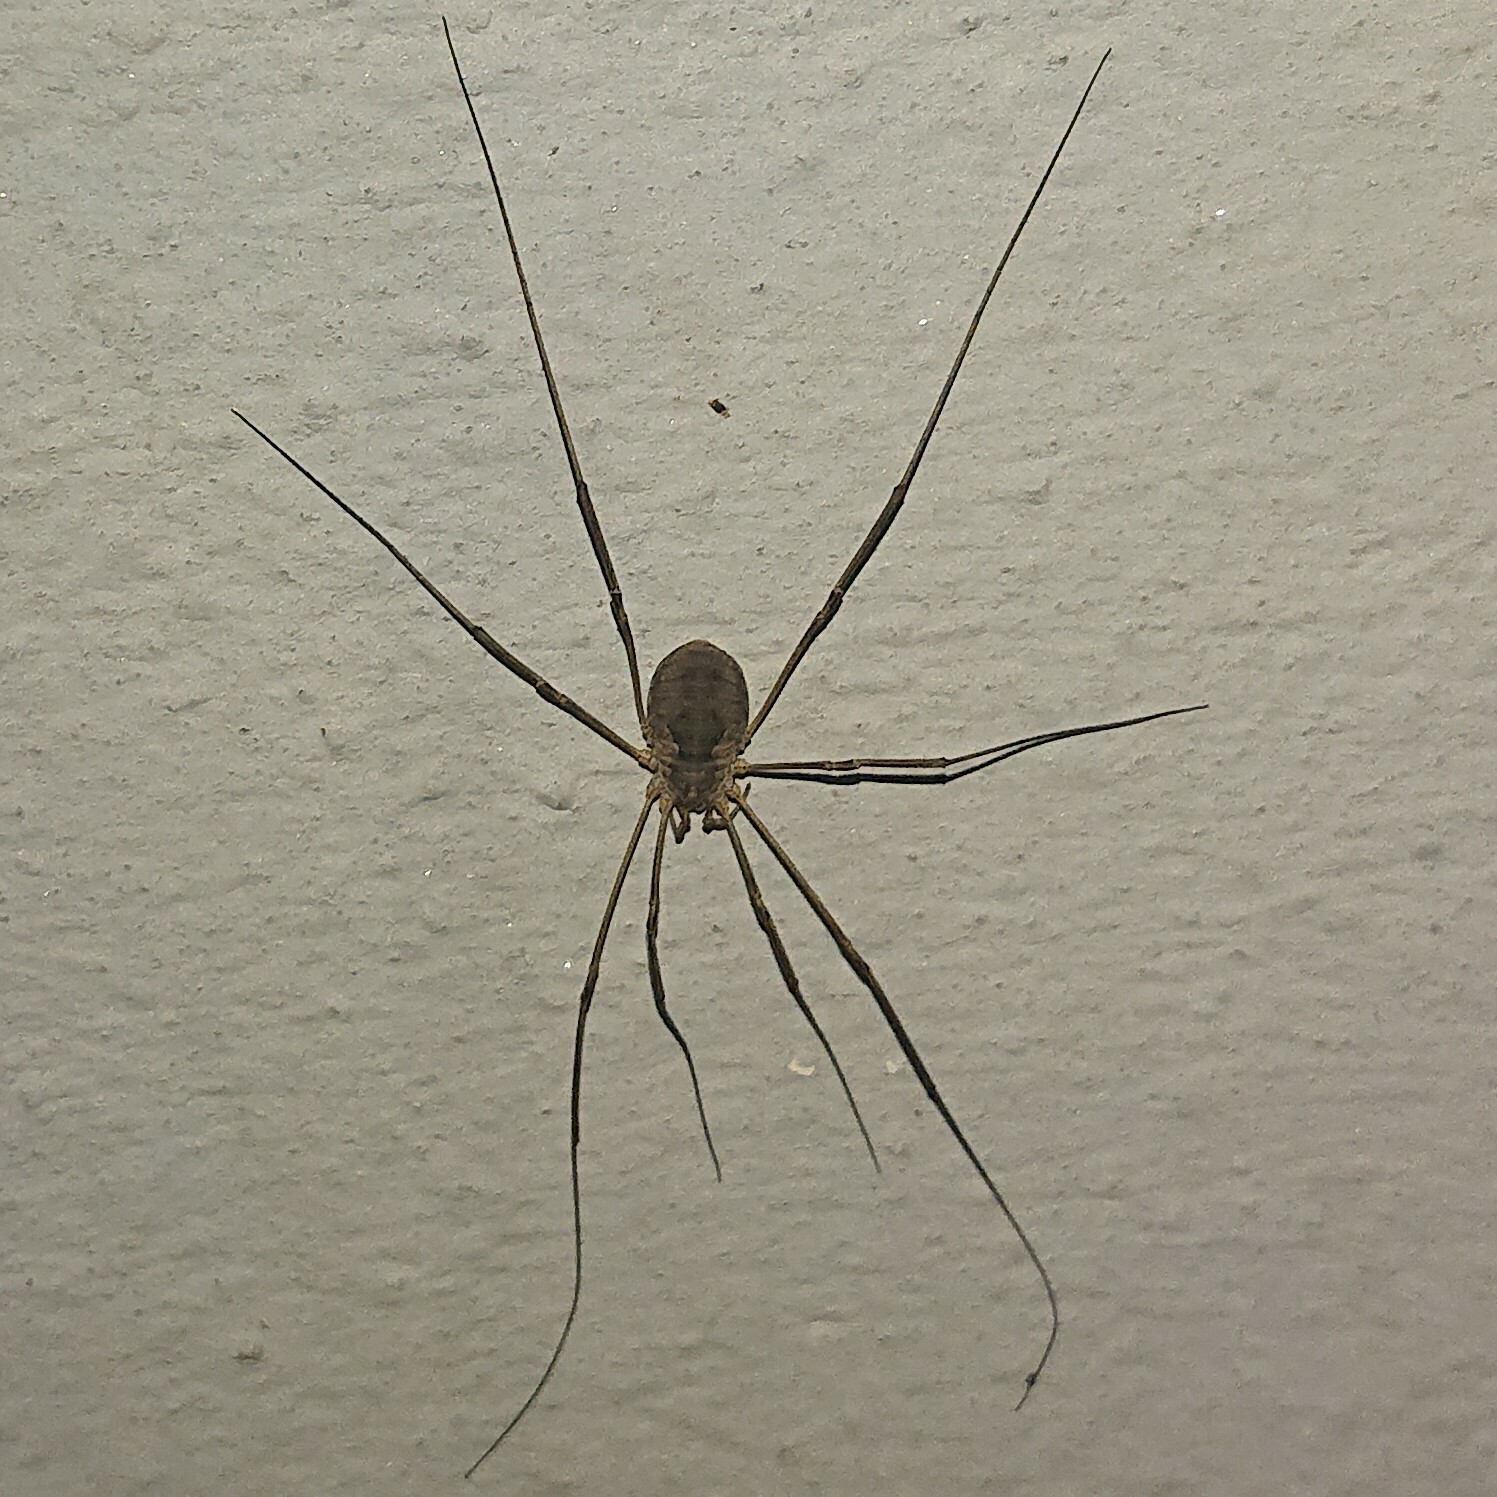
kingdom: Animalia
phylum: Arthropoda
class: Arachnida
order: Opiliones
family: Phalangiidae
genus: Phalangium
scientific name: Phalangium opilio
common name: Daddy longleg
